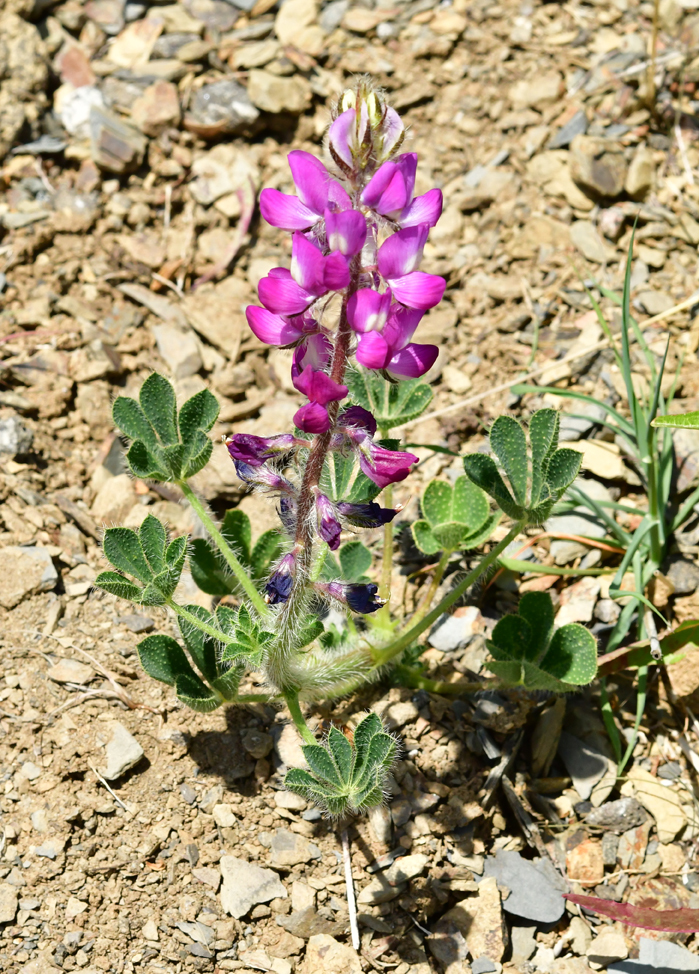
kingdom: Plantae
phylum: Tracheophyta
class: Magnoliopsida
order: Fabales
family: Fabaceae
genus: Lupinus
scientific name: Lupinus hirsutissimus
